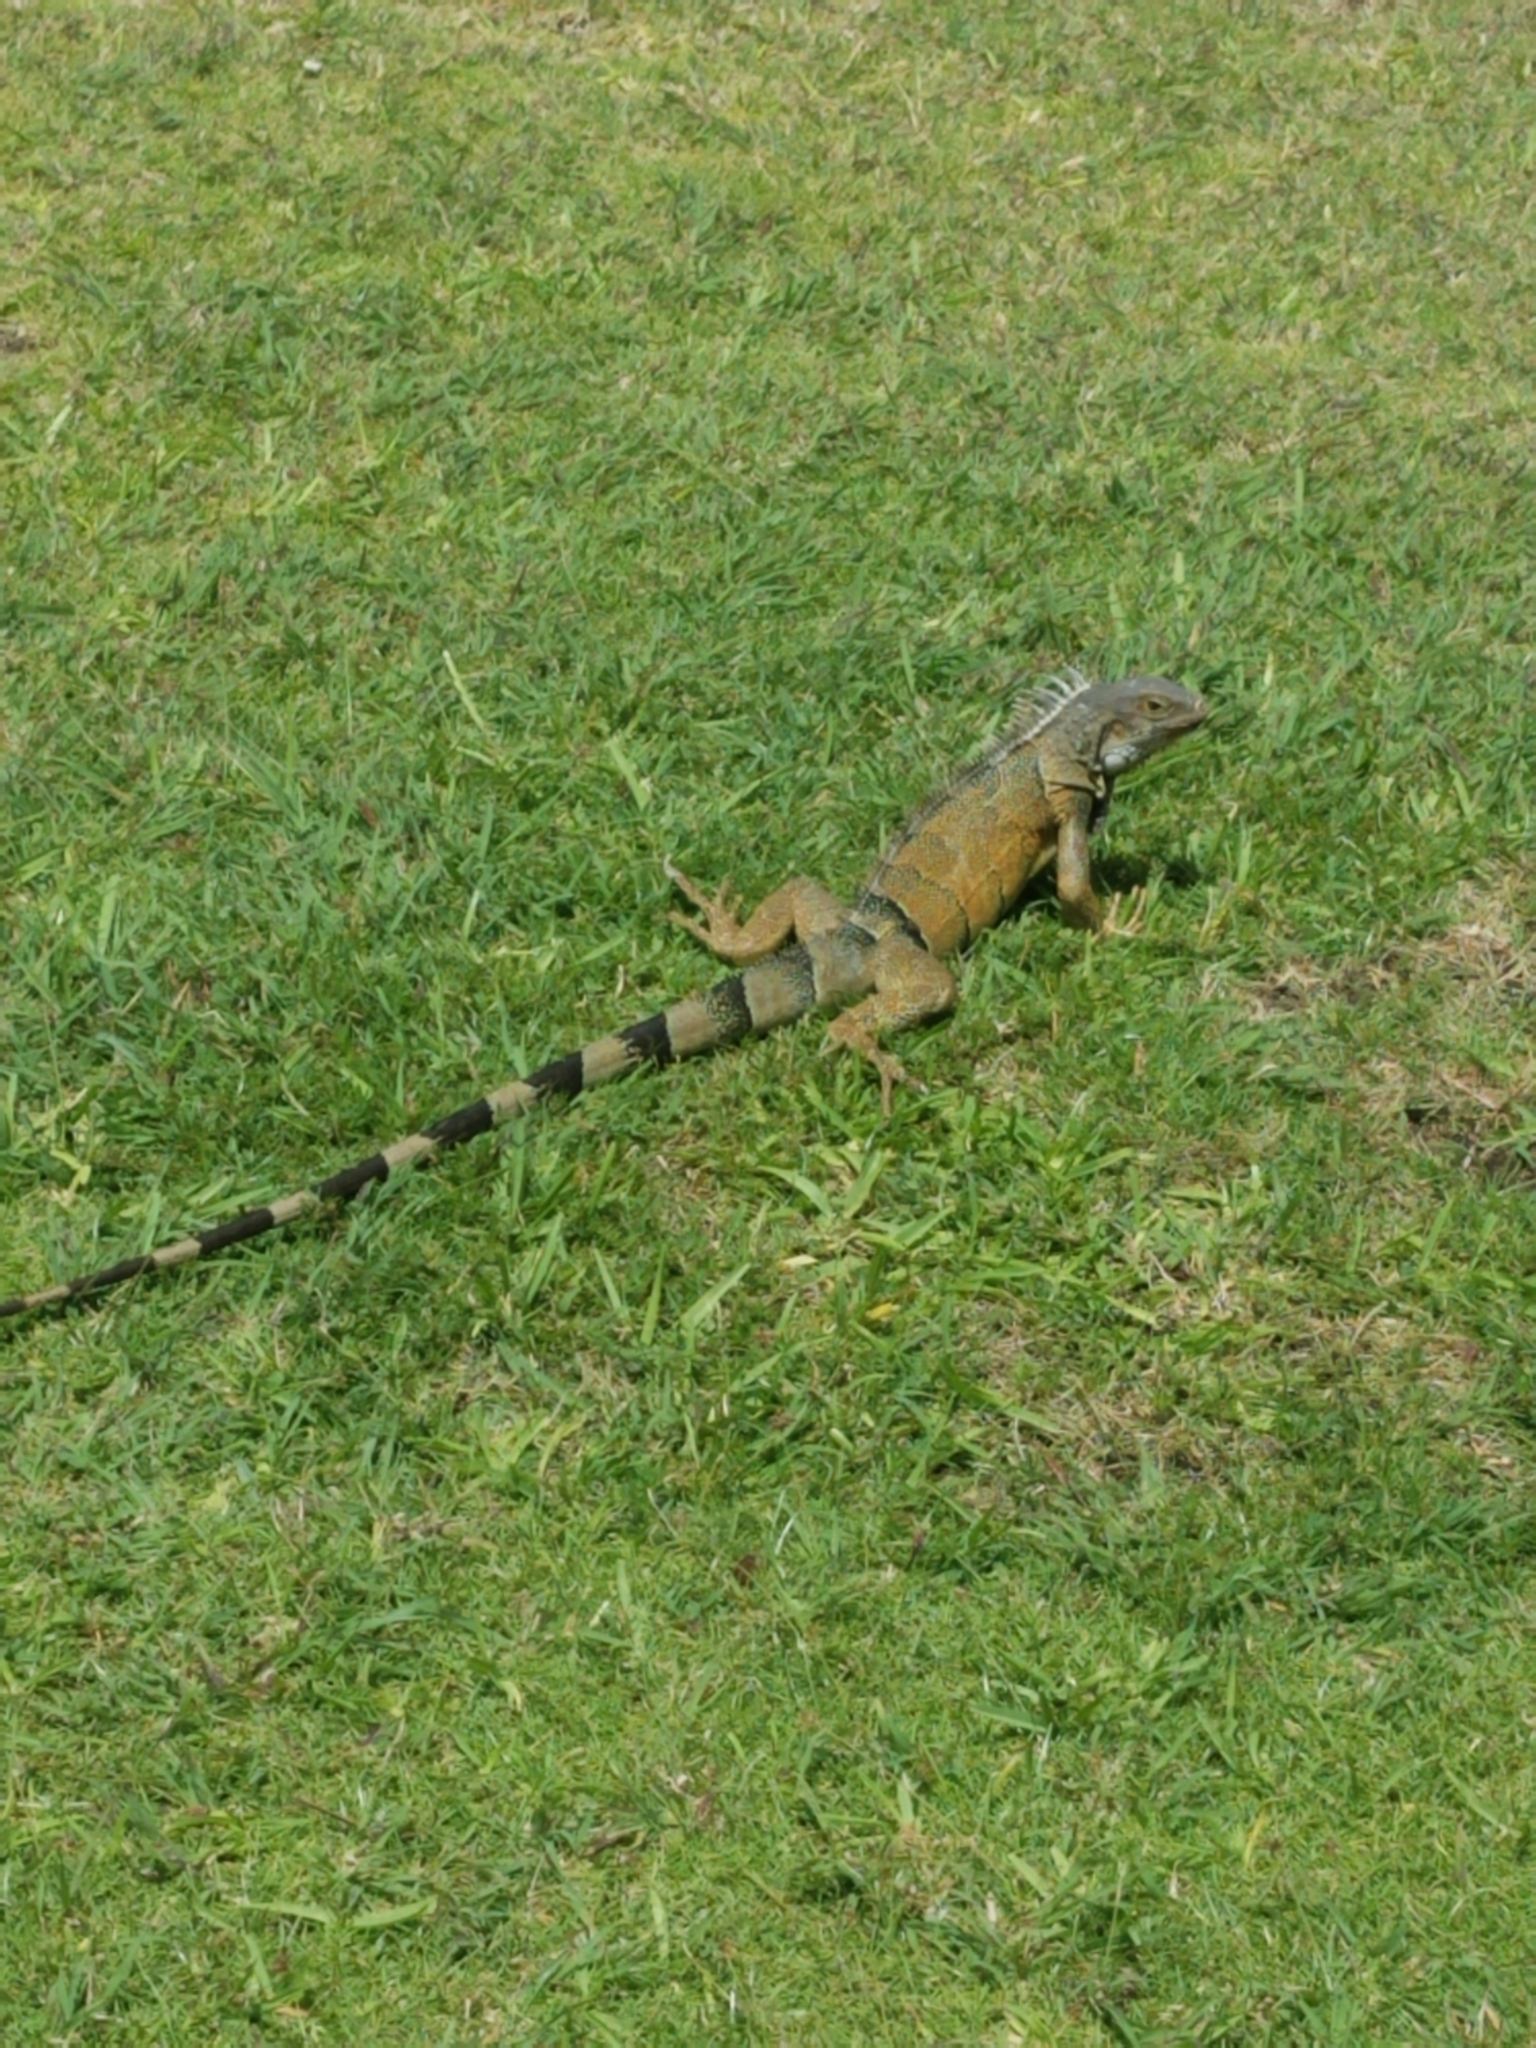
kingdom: Animalia
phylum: Chordata
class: Squamata
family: Iguanidae
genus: Iguana
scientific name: Iguana iguana
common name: Green iguana
